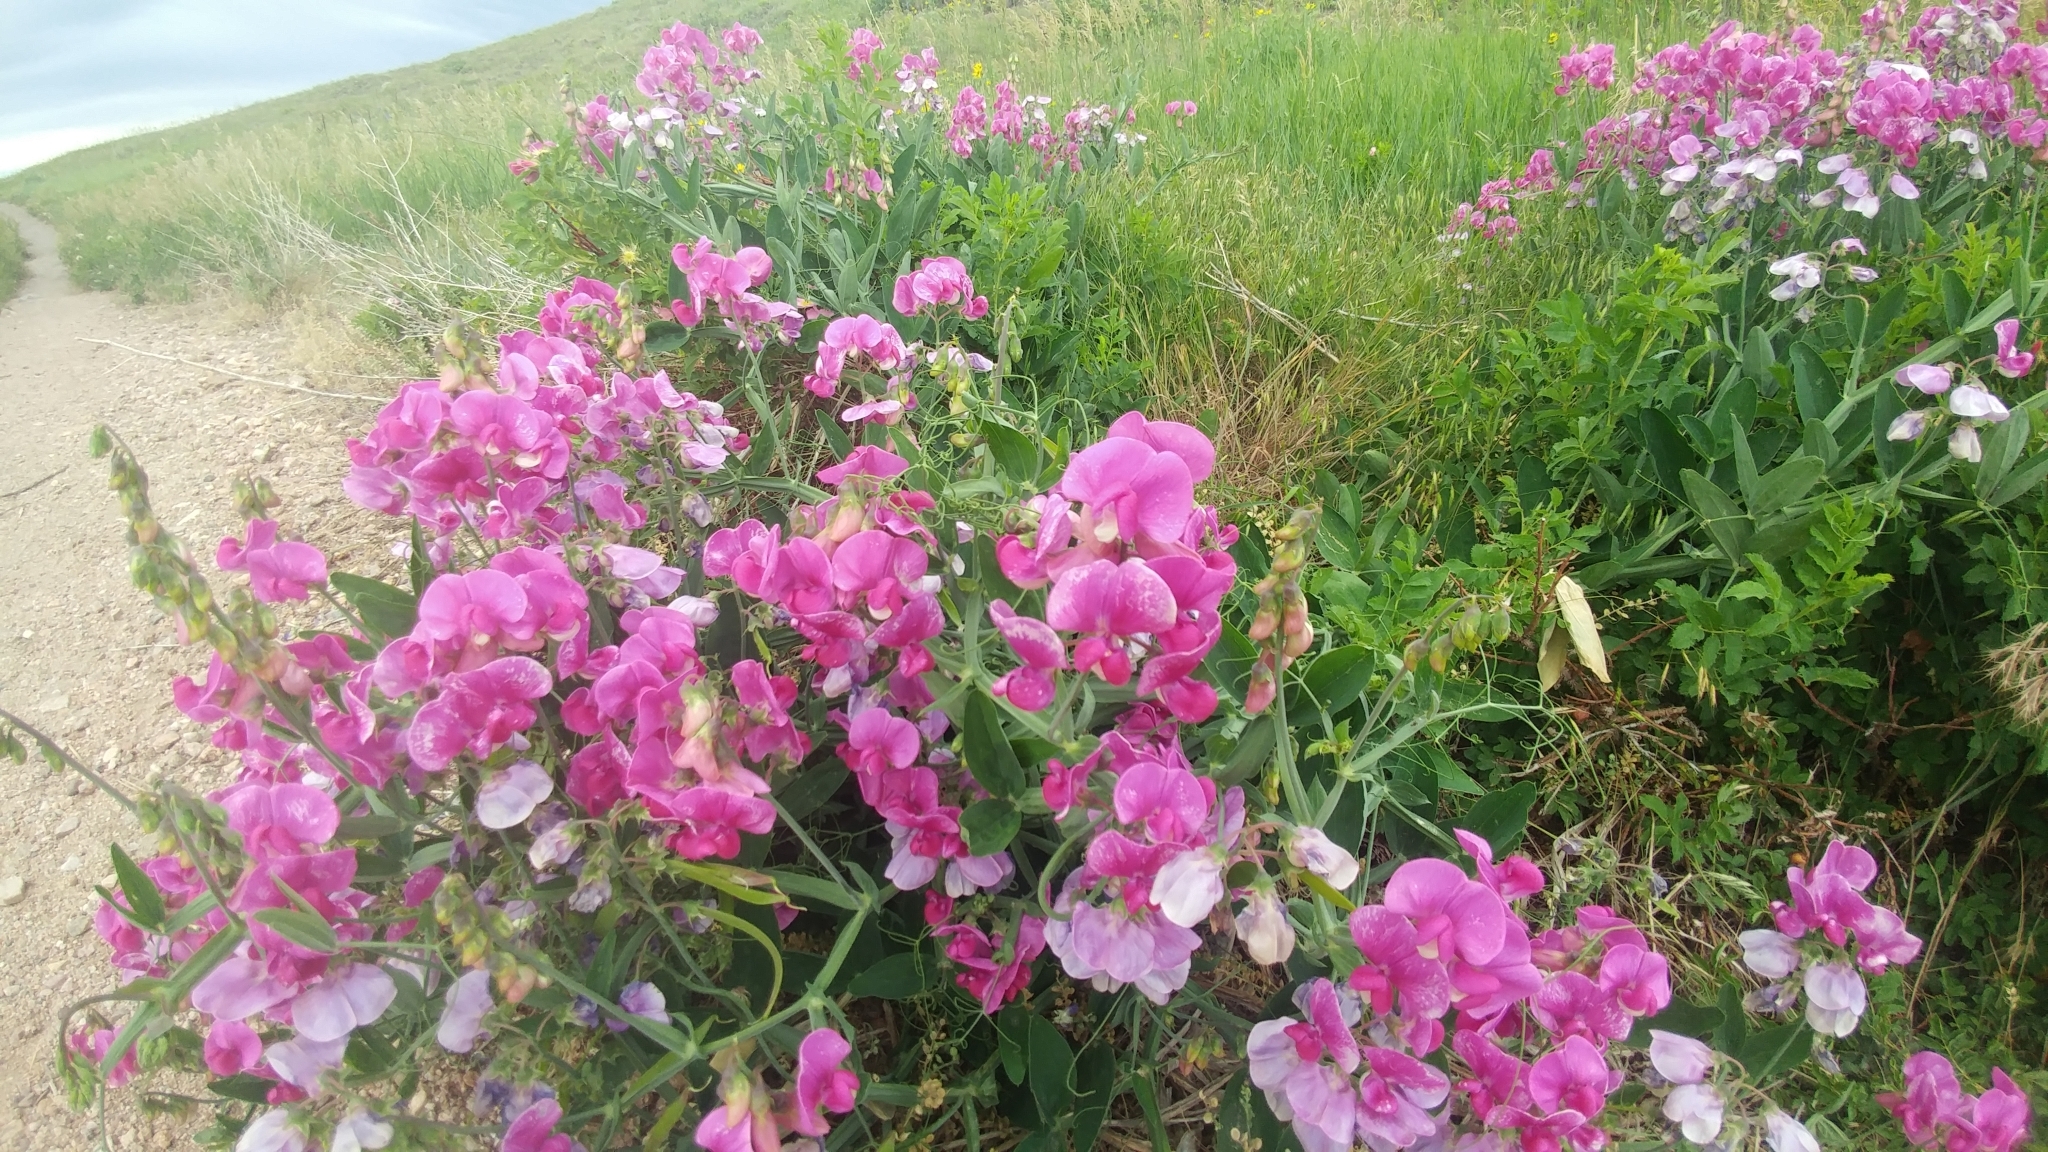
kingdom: Plantae
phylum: Tracheophyta
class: Magnoliopsida
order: Fabales
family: Fabaceae
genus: Lathyrus
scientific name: Lathyrus latifolius
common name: Perennial pea
